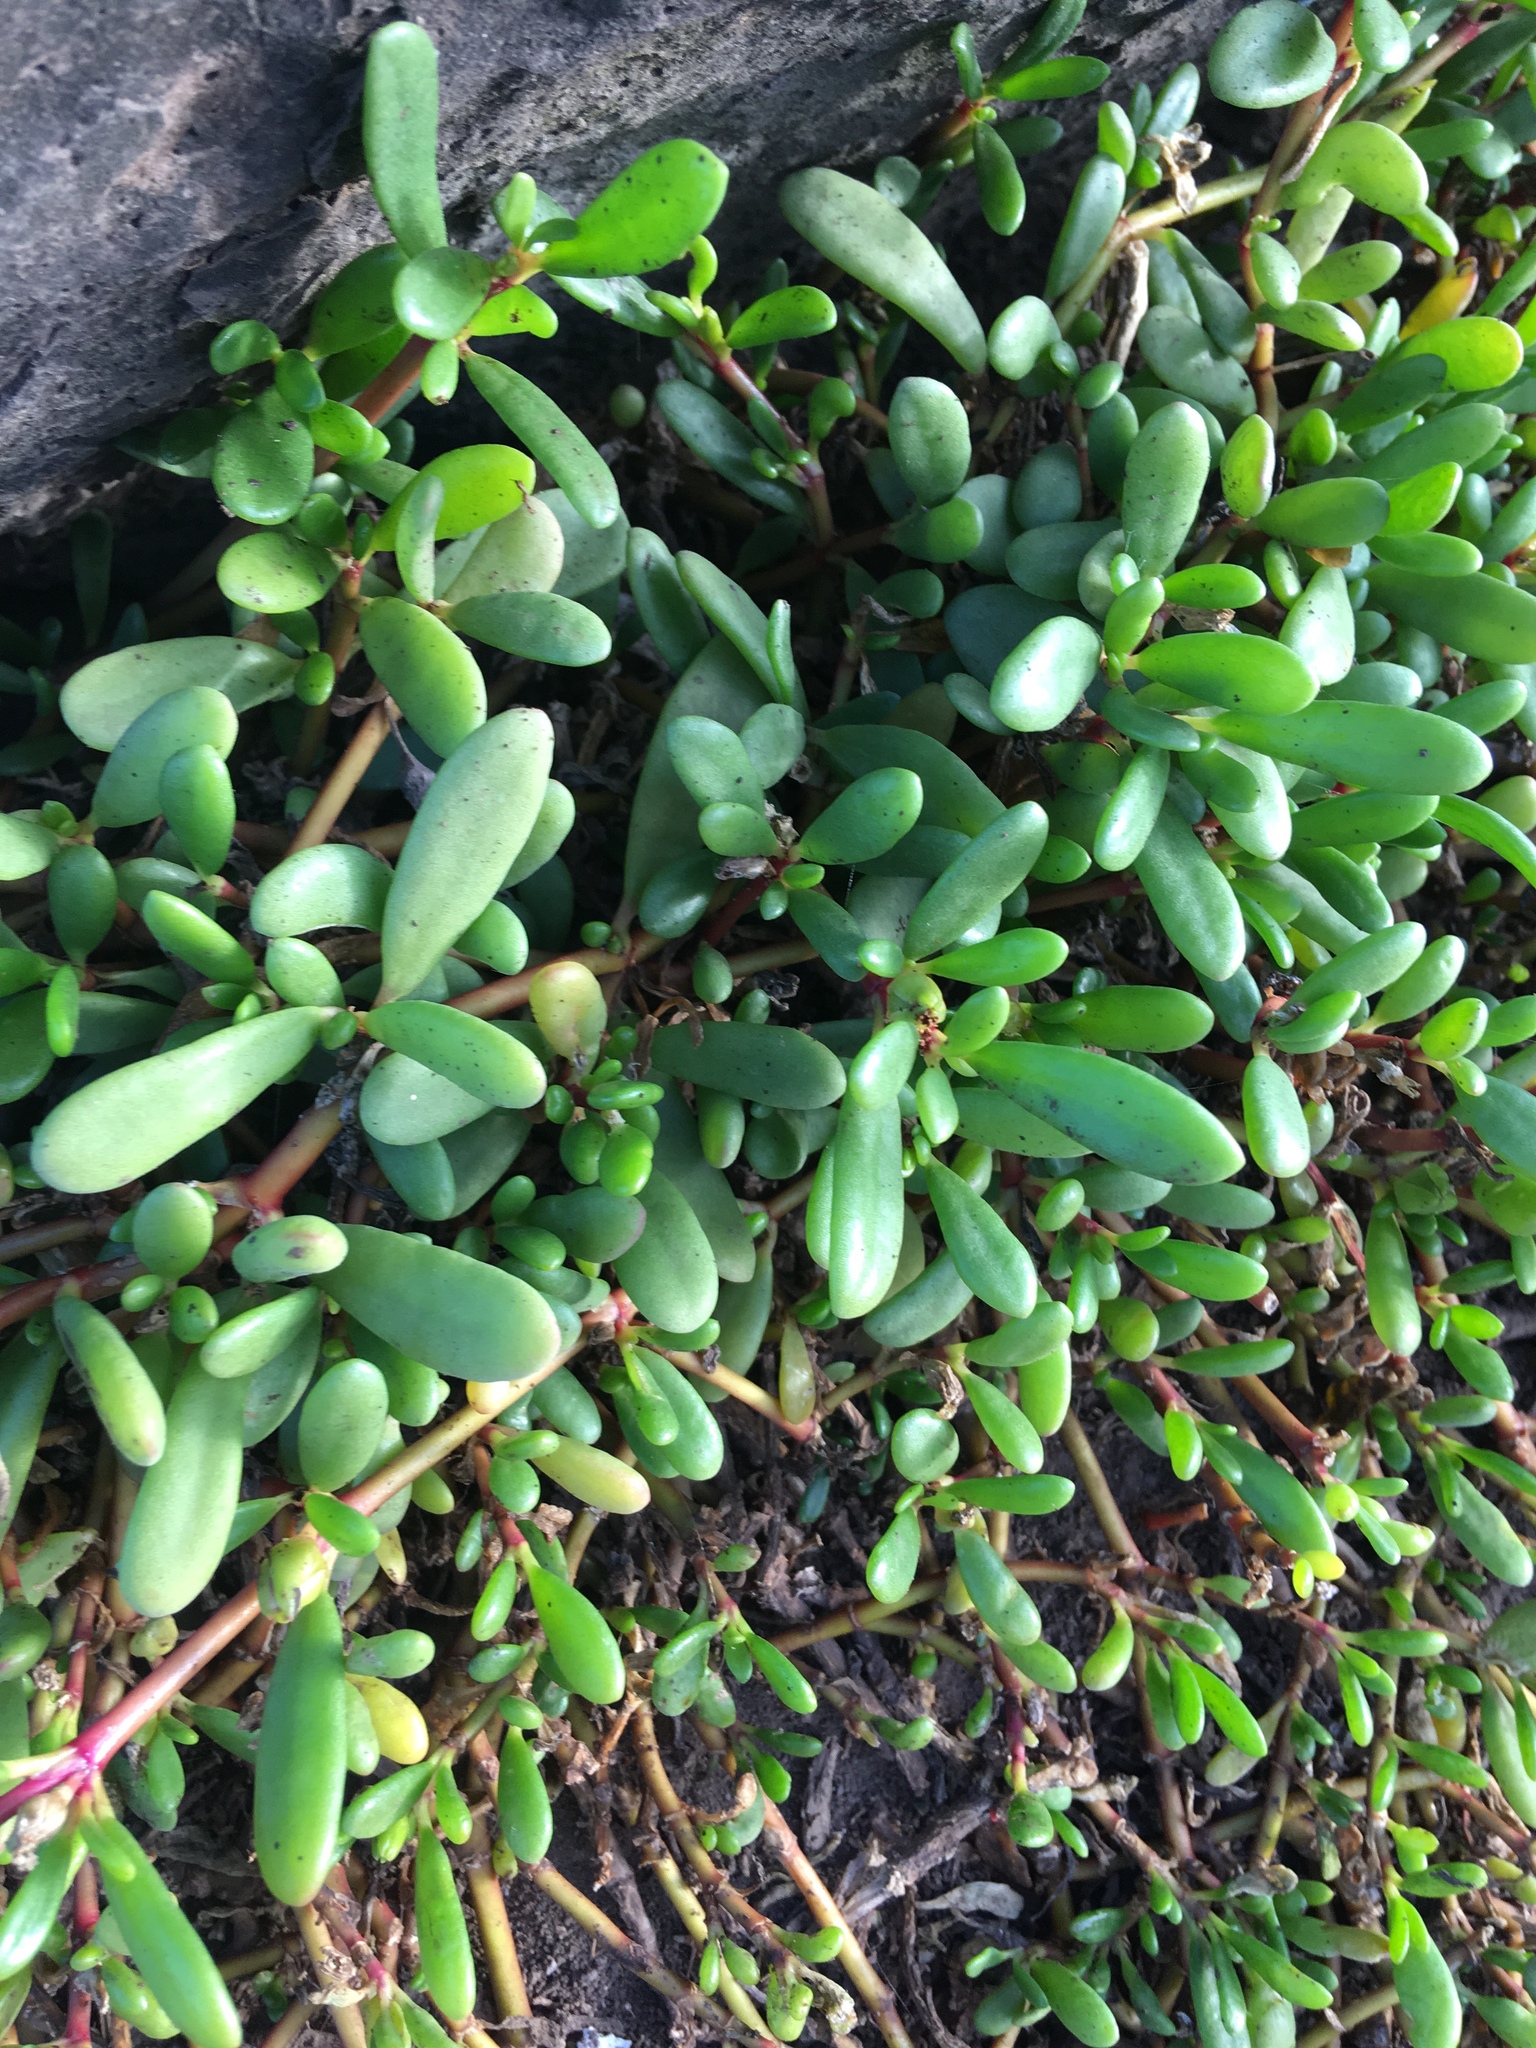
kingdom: Plantae
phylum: Tracheophyta
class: Magnoliopsida
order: Caryophyllales
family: Aizoaceae
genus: Sesuvium
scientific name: Sesuvium portulacastrum
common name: Sea-purslane
